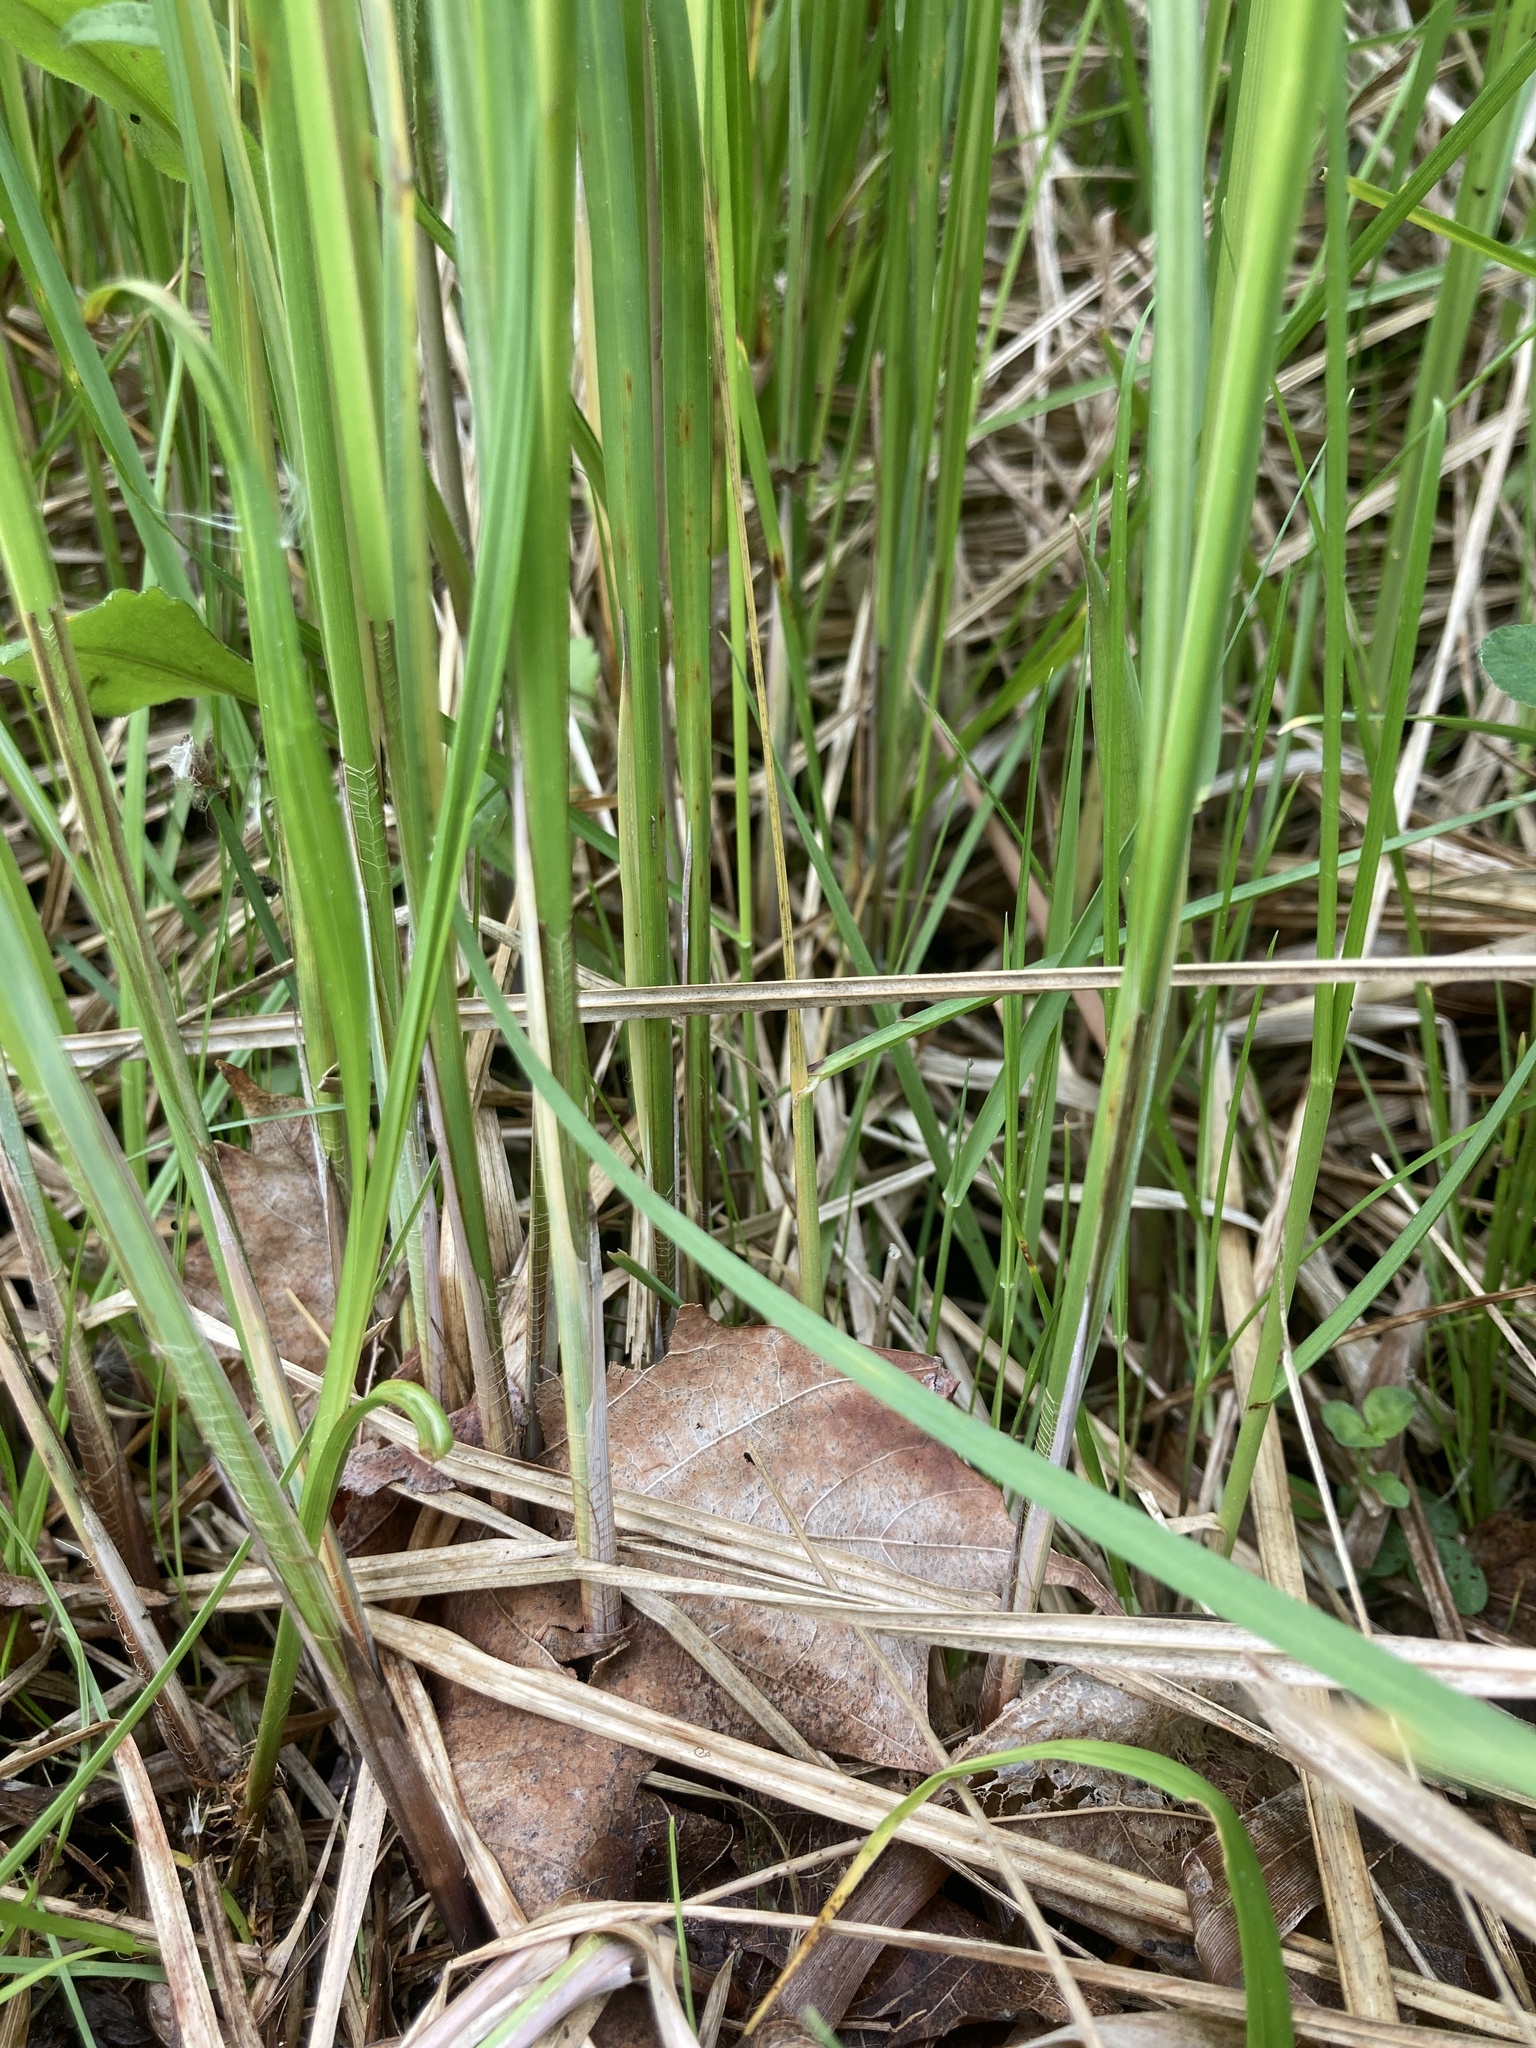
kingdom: Plantae
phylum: Tracheophyta
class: Liliopsida
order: Poales
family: Cyperaceae
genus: Carex
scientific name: Carex stricta
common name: Hummock sedge
